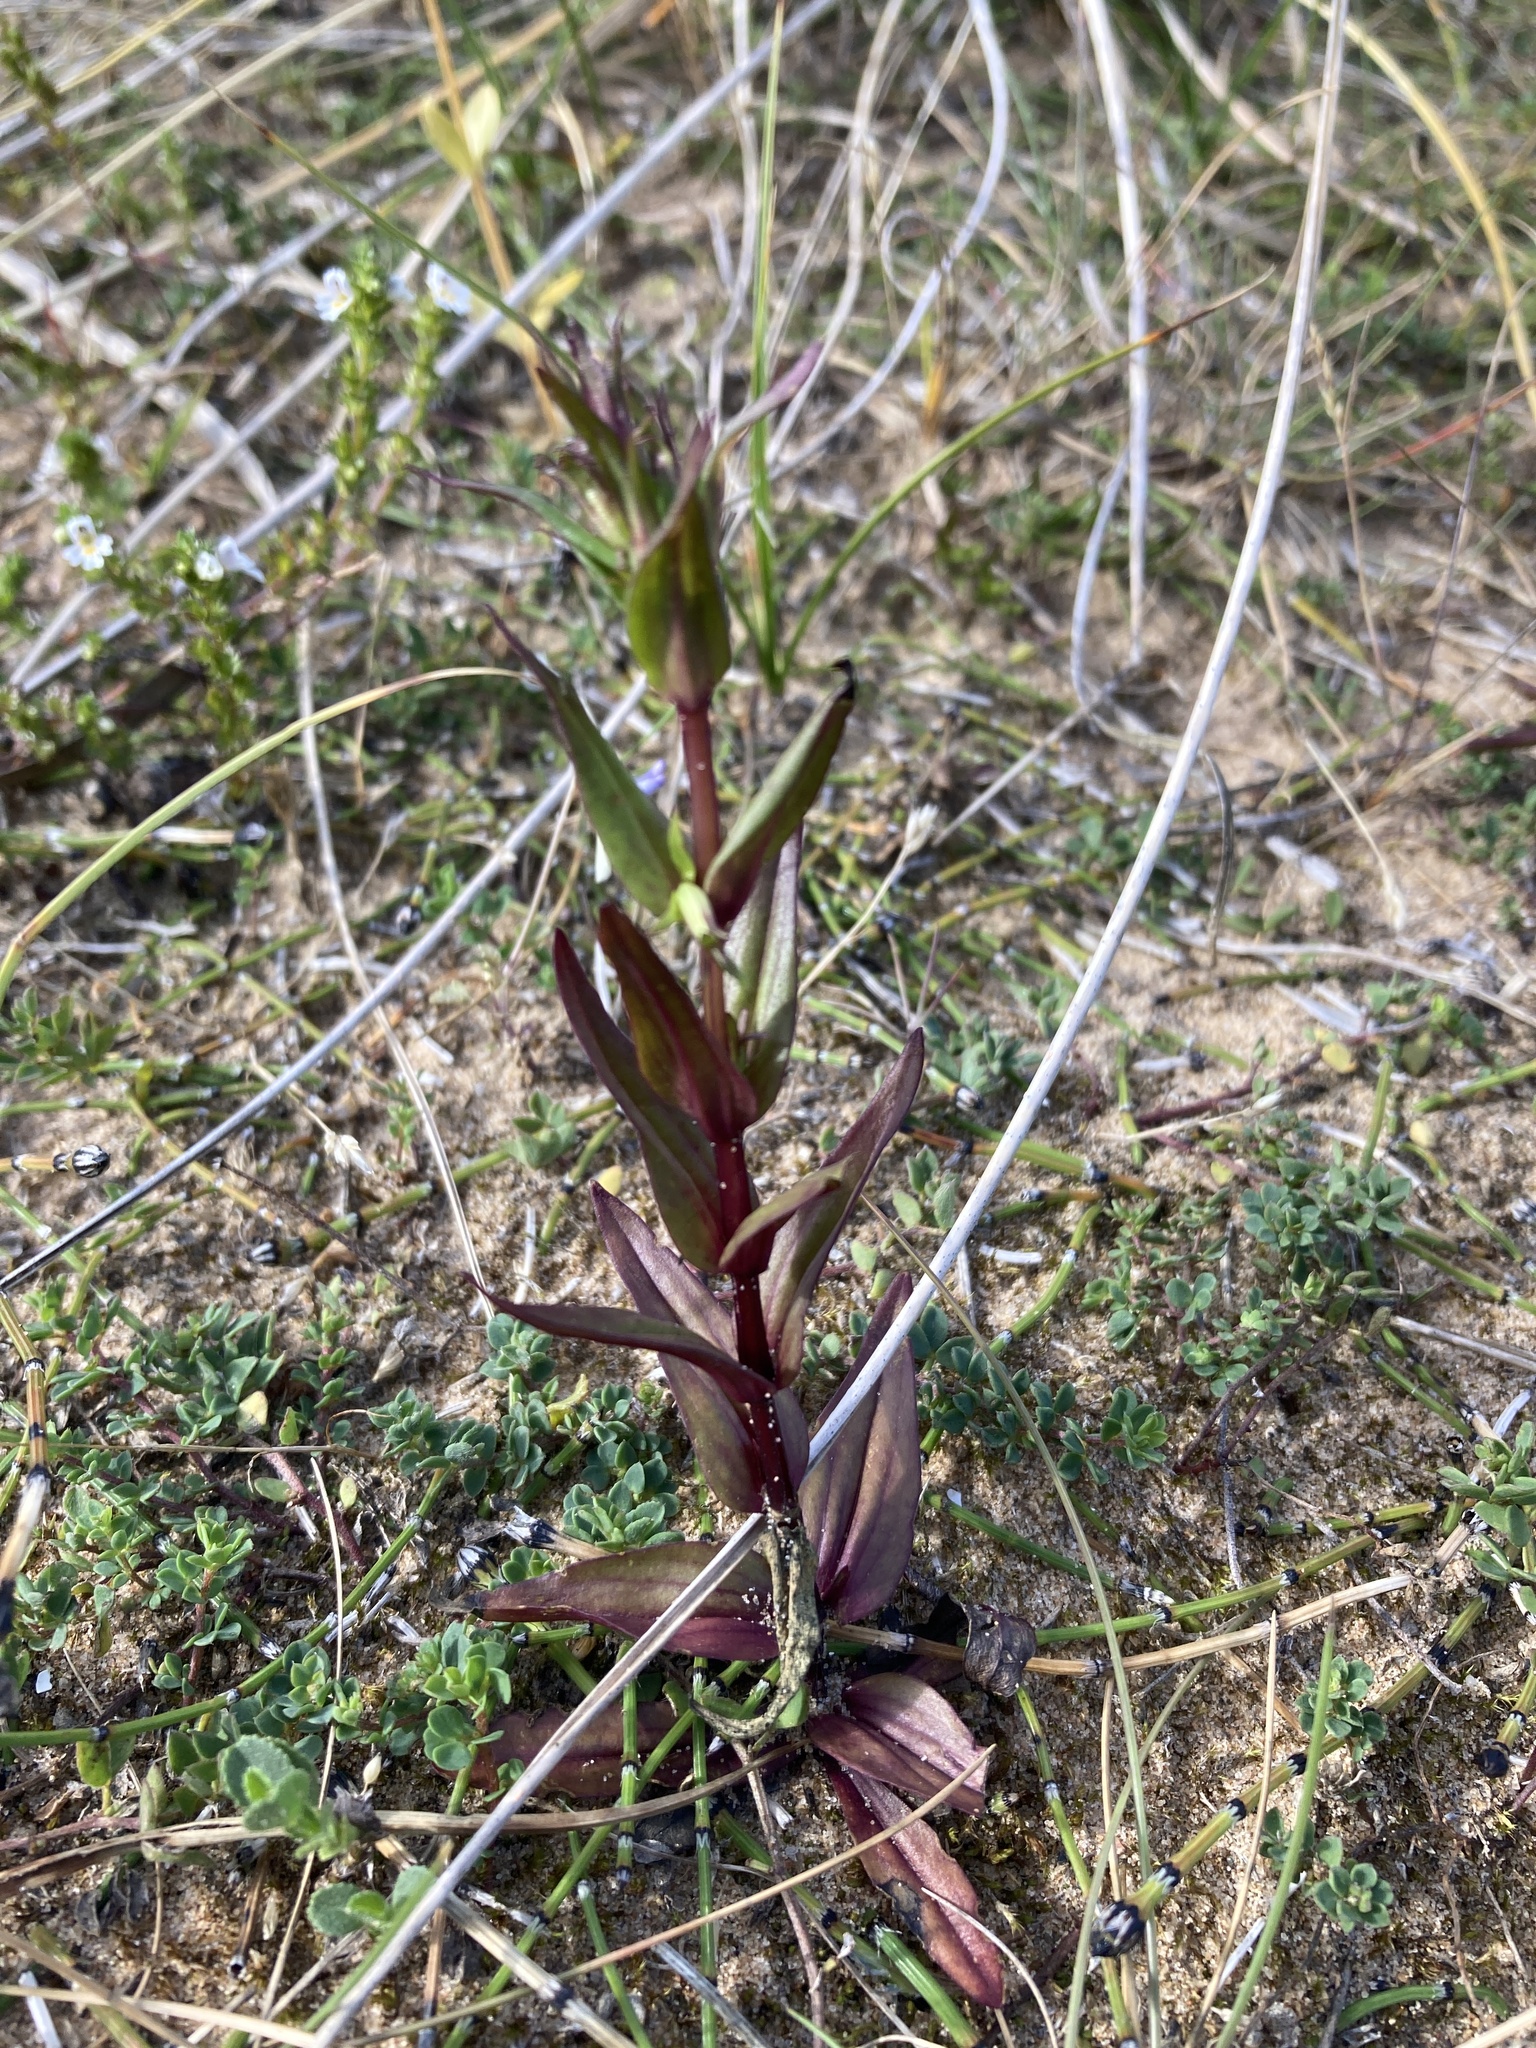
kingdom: Plantae
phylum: Tracheophyta
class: Magnoliopsida
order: Gentianales
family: Gentianaceae
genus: Gentianella
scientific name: Gentianella amarella
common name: Autumn gentian
